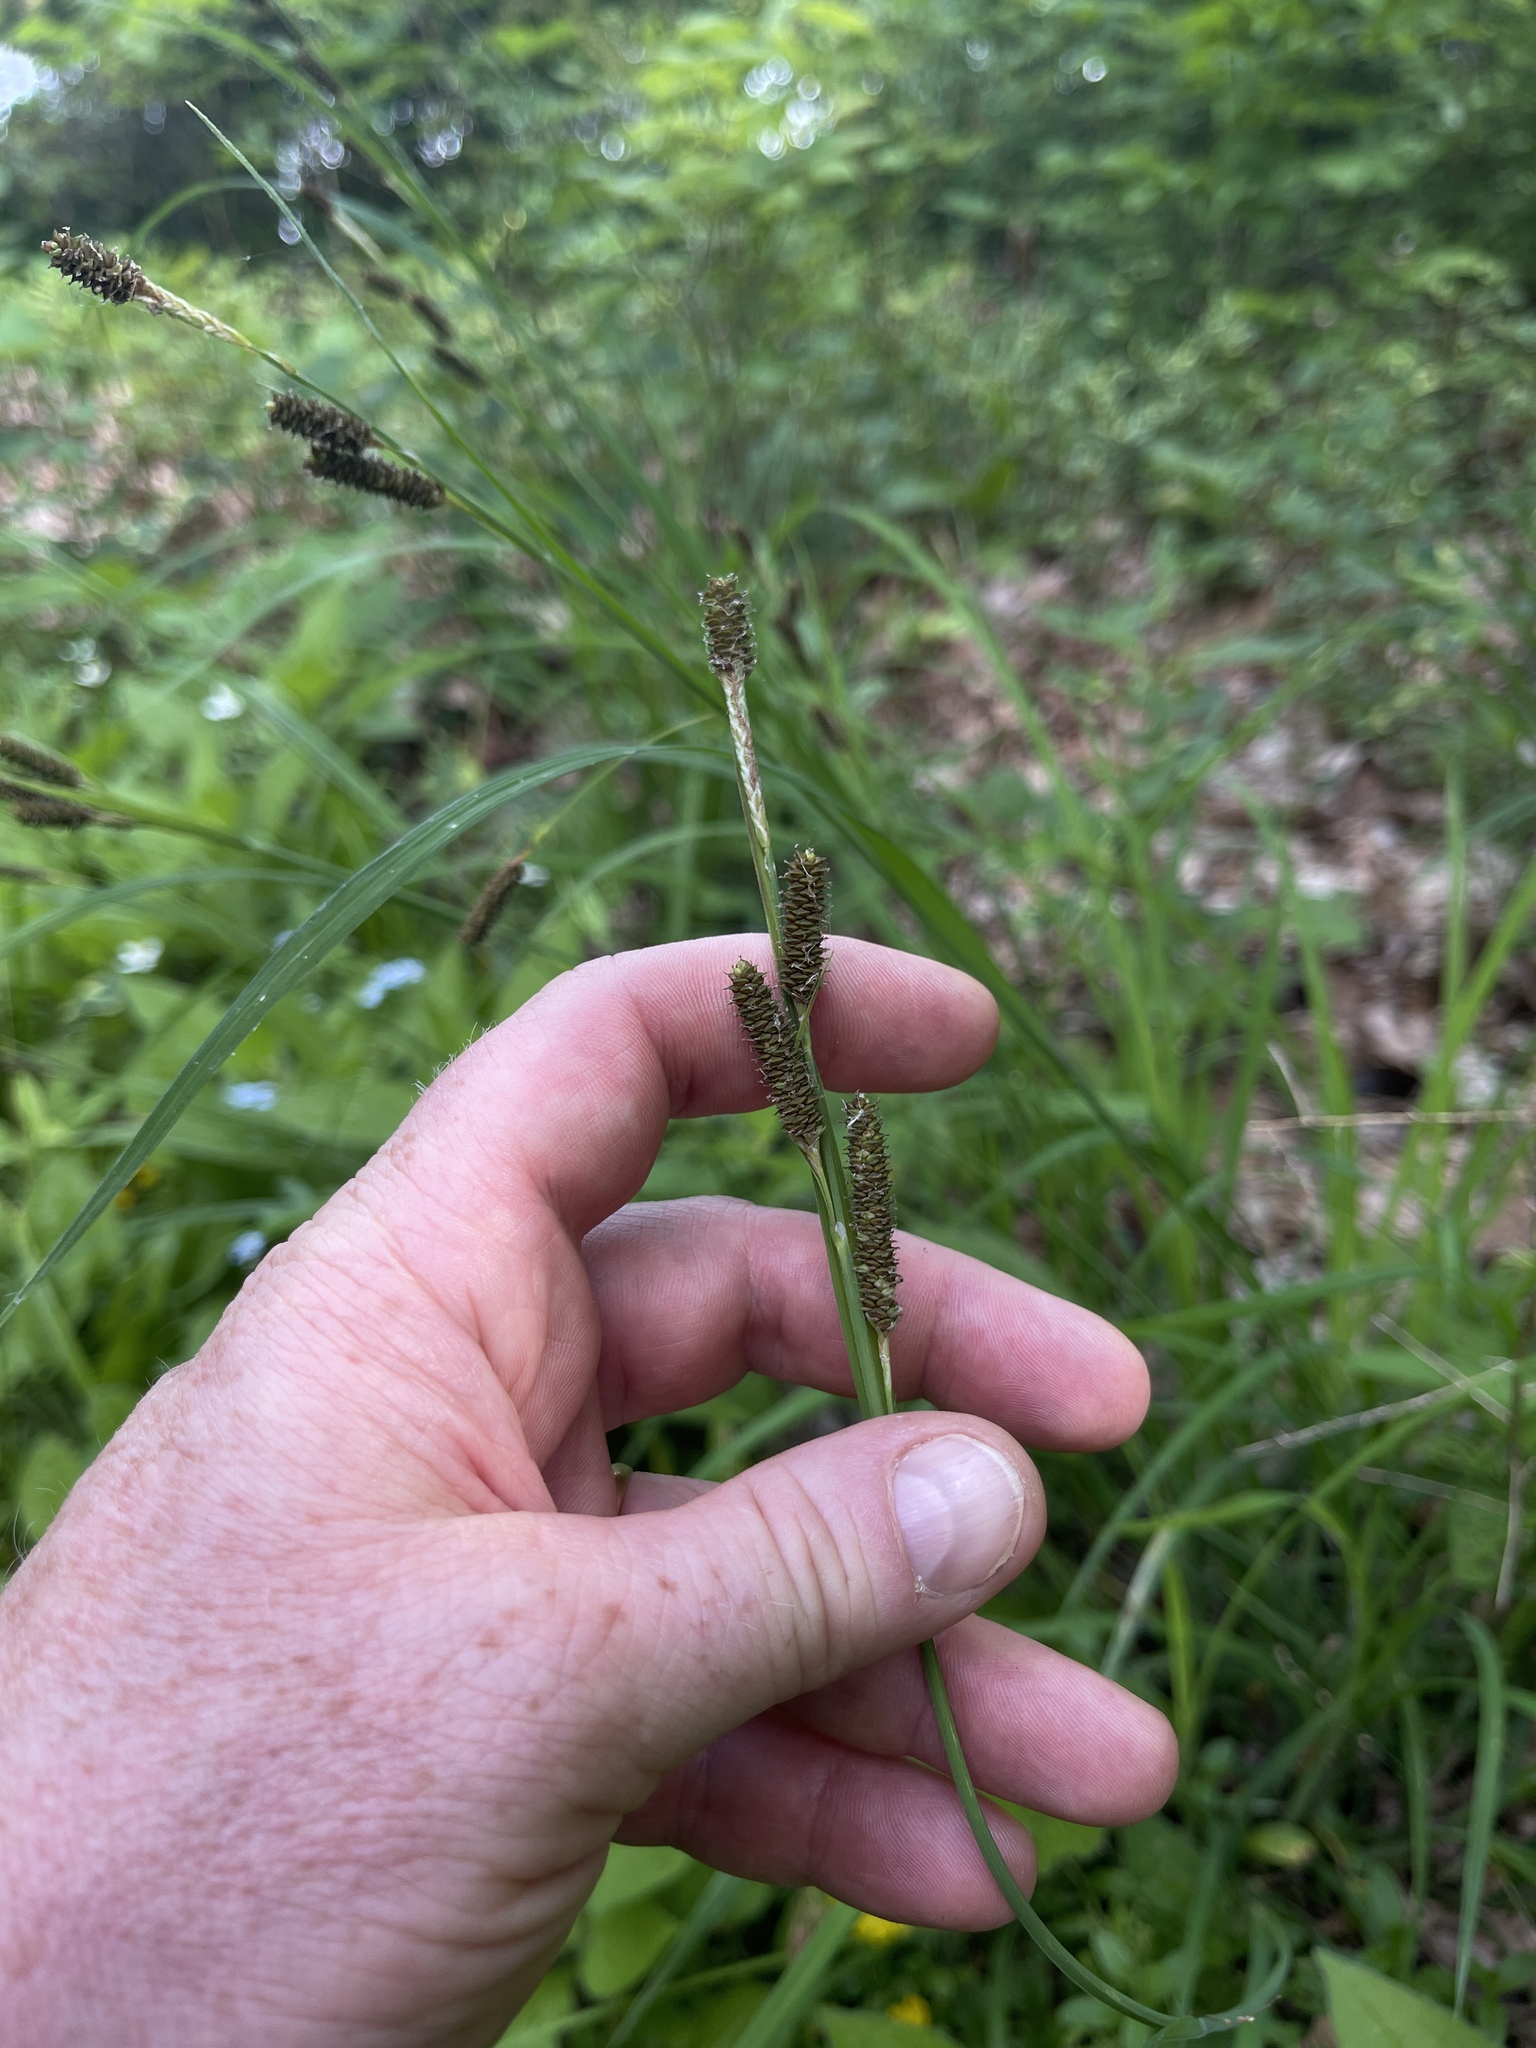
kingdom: Plantae
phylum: Tracheophyta
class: Liliopsida
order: Poales
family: Cyperaceae
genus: Carex
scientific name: Carex shortiana
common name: Short's sedge
